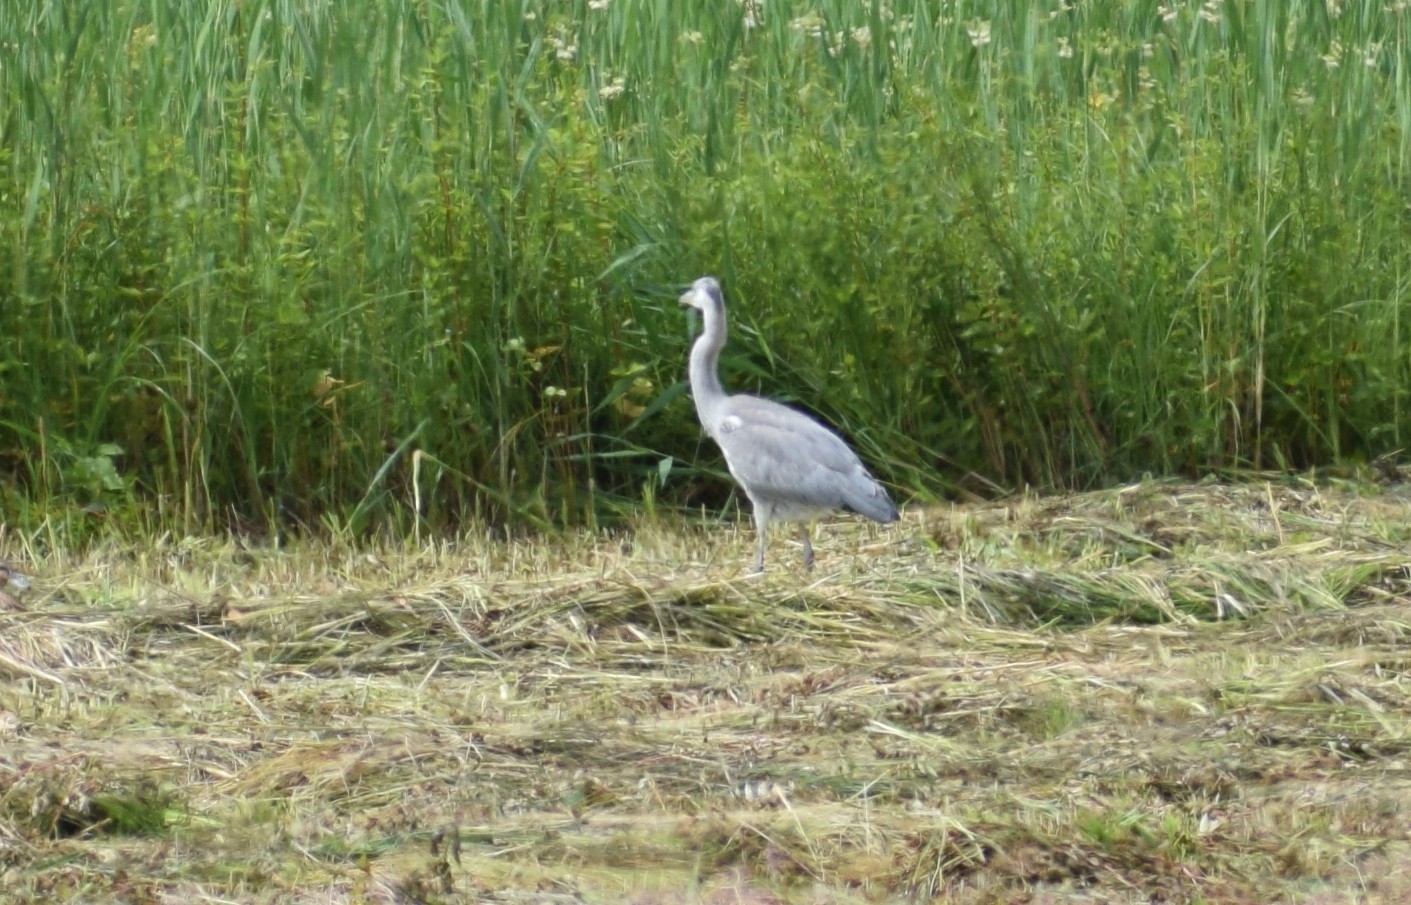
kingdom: Animalia
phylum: Chordata
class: Aves
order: Pelecaniformes
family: Ardeidae
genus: Ardea
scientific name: Ardea cinerea
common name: Grey heron
